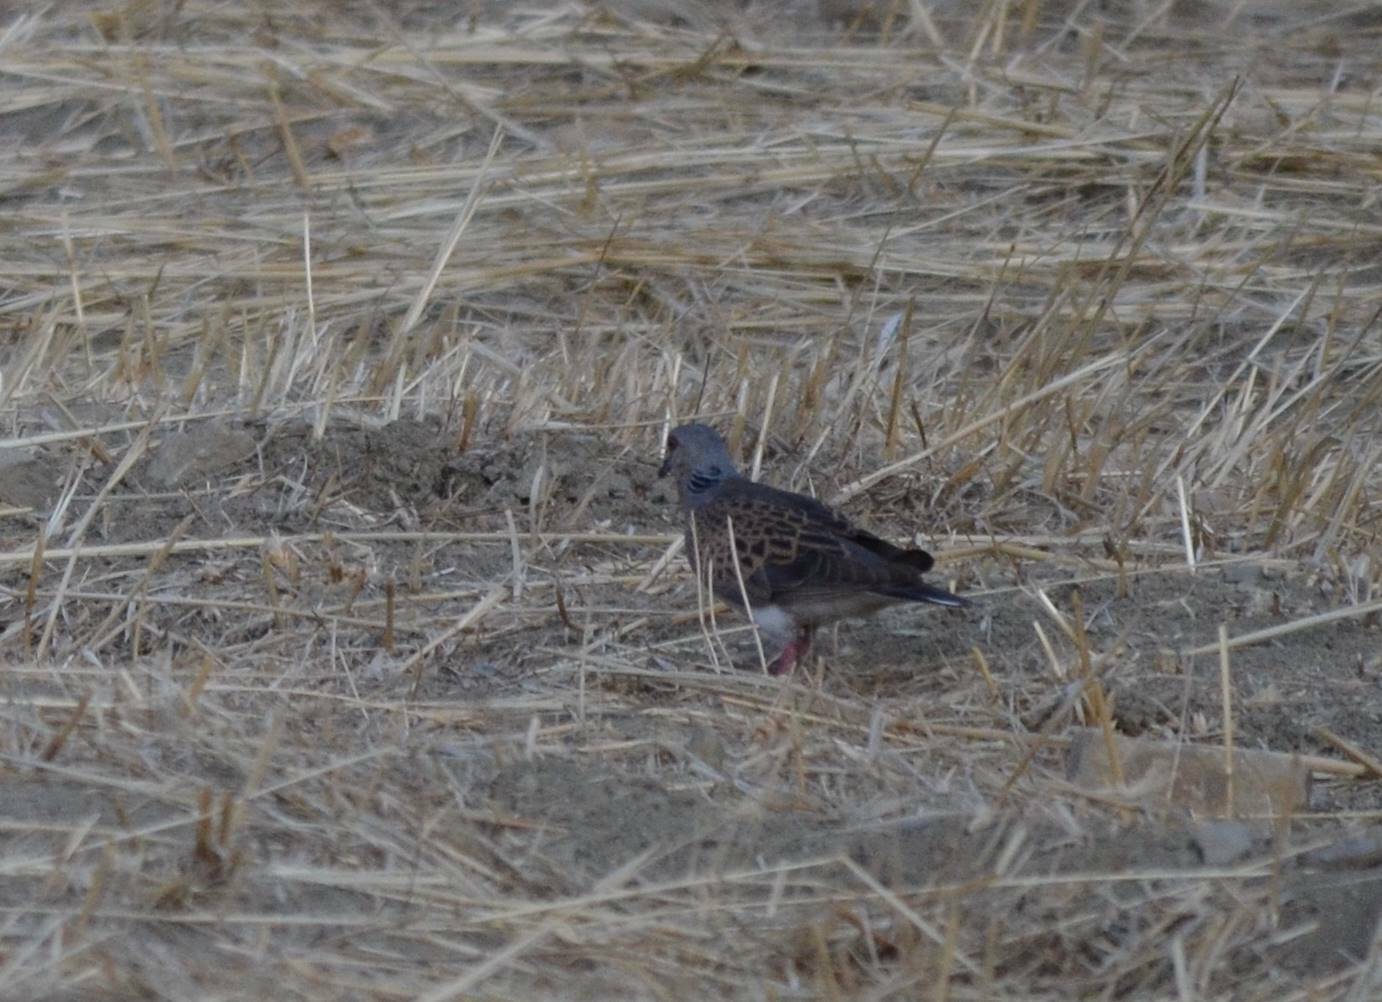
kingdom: Animalia
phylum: Chordata
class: Aves
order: Columbiformes
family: Columbidae
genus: Streptopelia
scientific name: Streptopelia turtur
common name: European turtle dove
